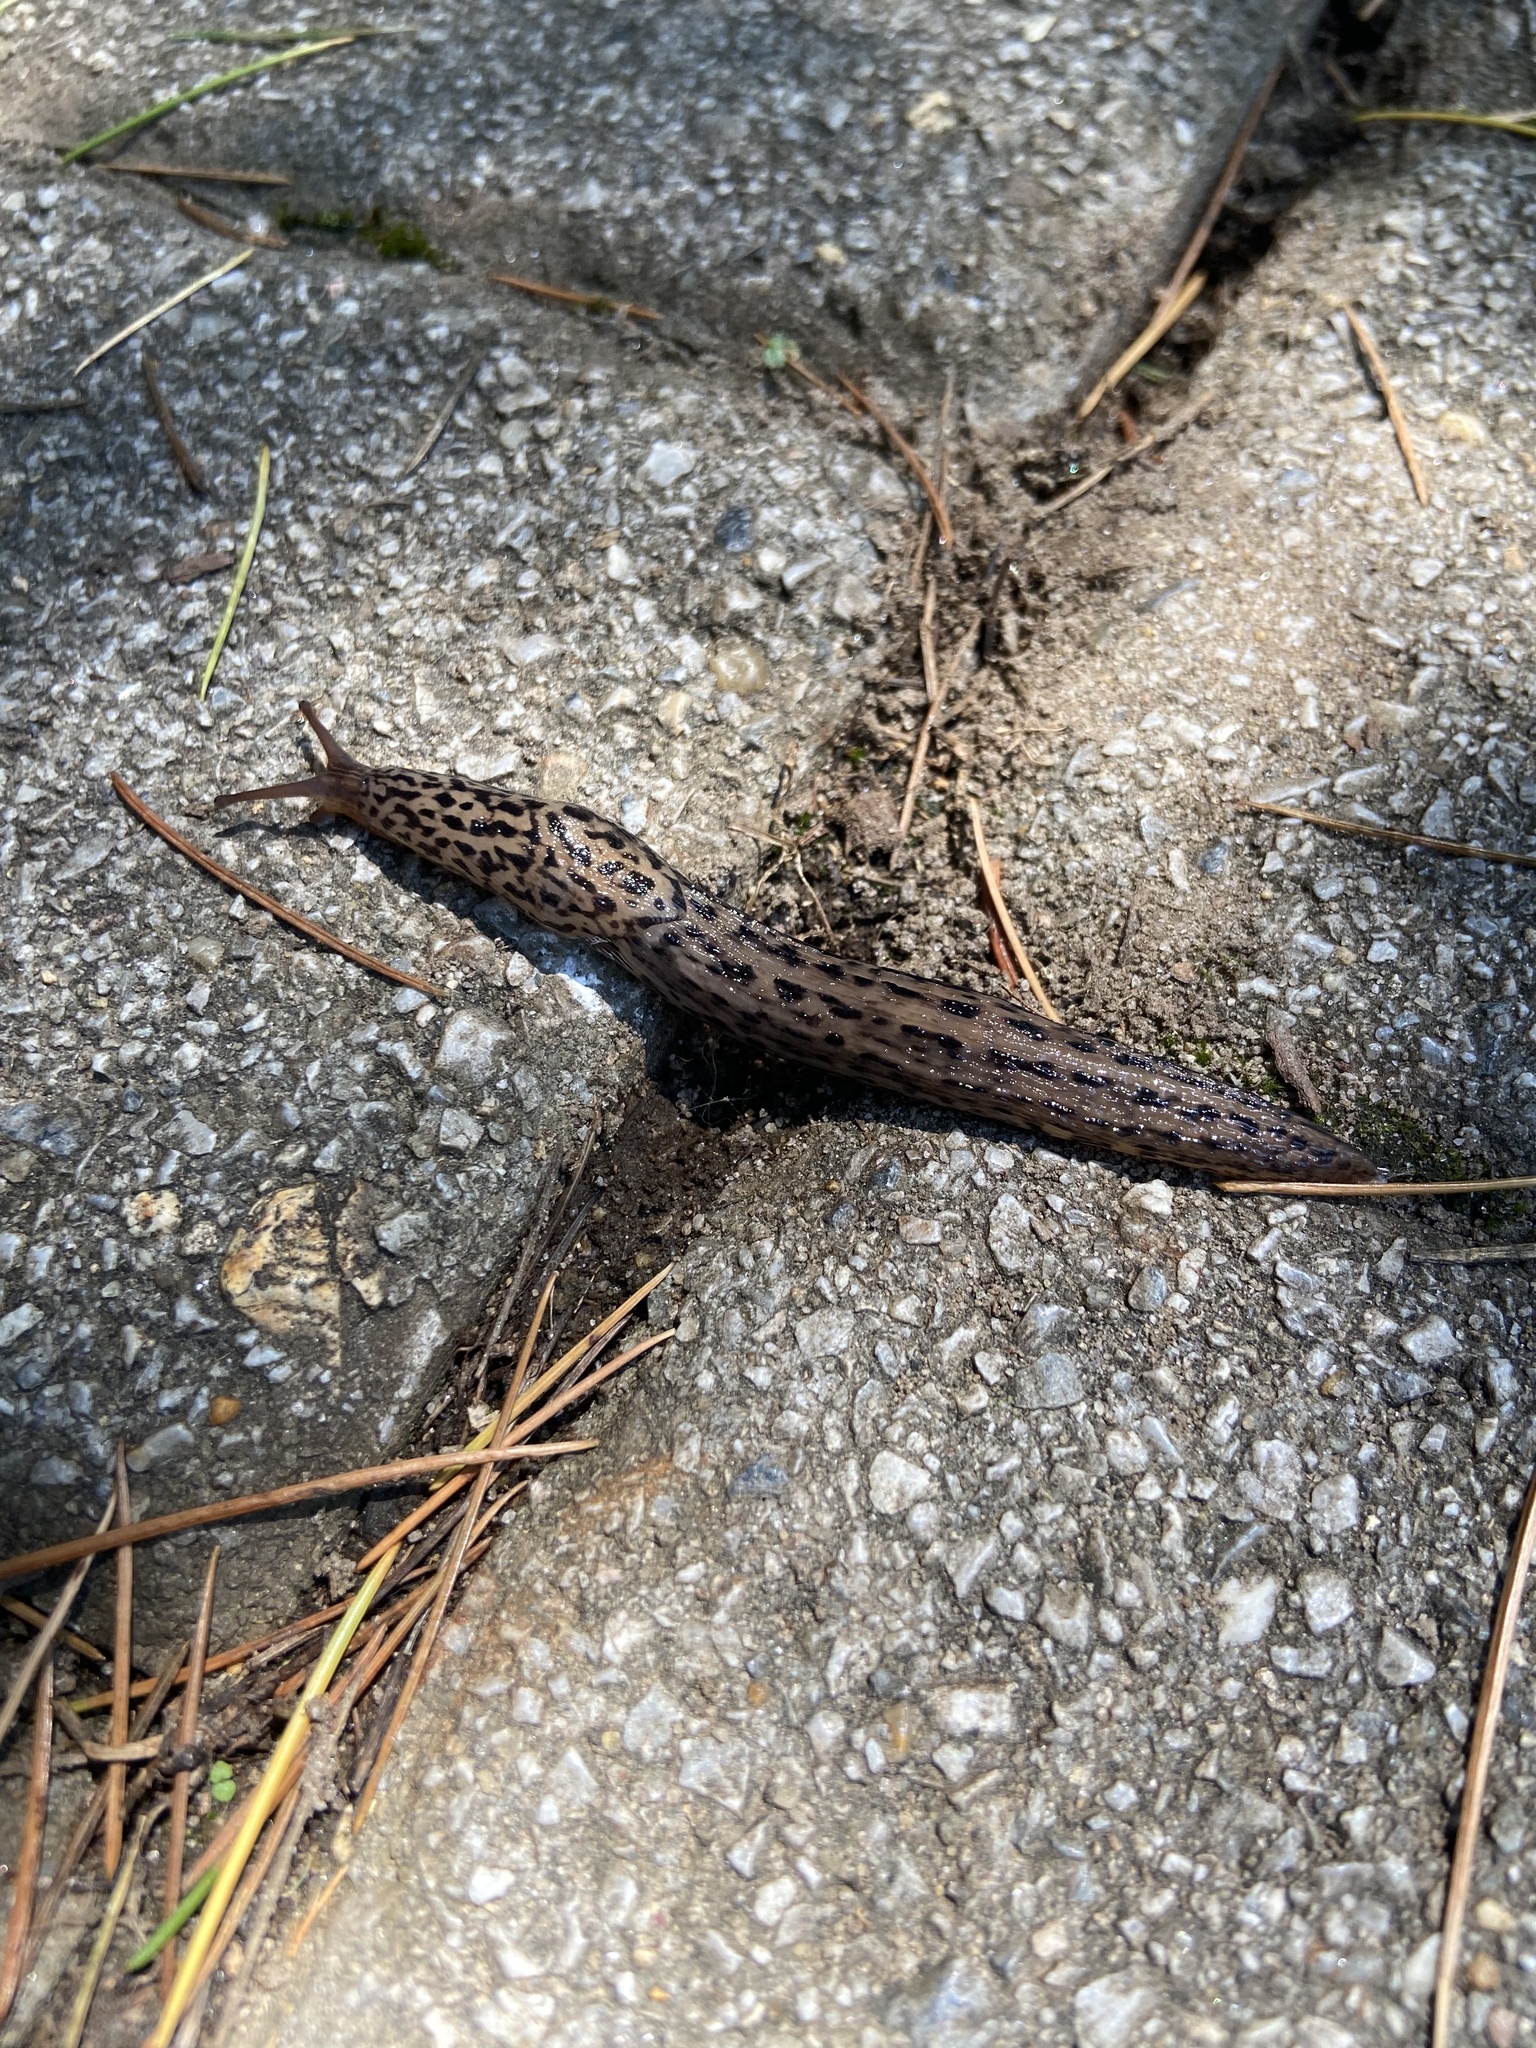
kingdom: Animalia
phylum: Mollusca
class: Gastropoda
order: Stylommatophora
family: Limacidae
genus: Limax
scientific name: Limax maximus
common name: Great grey slug
